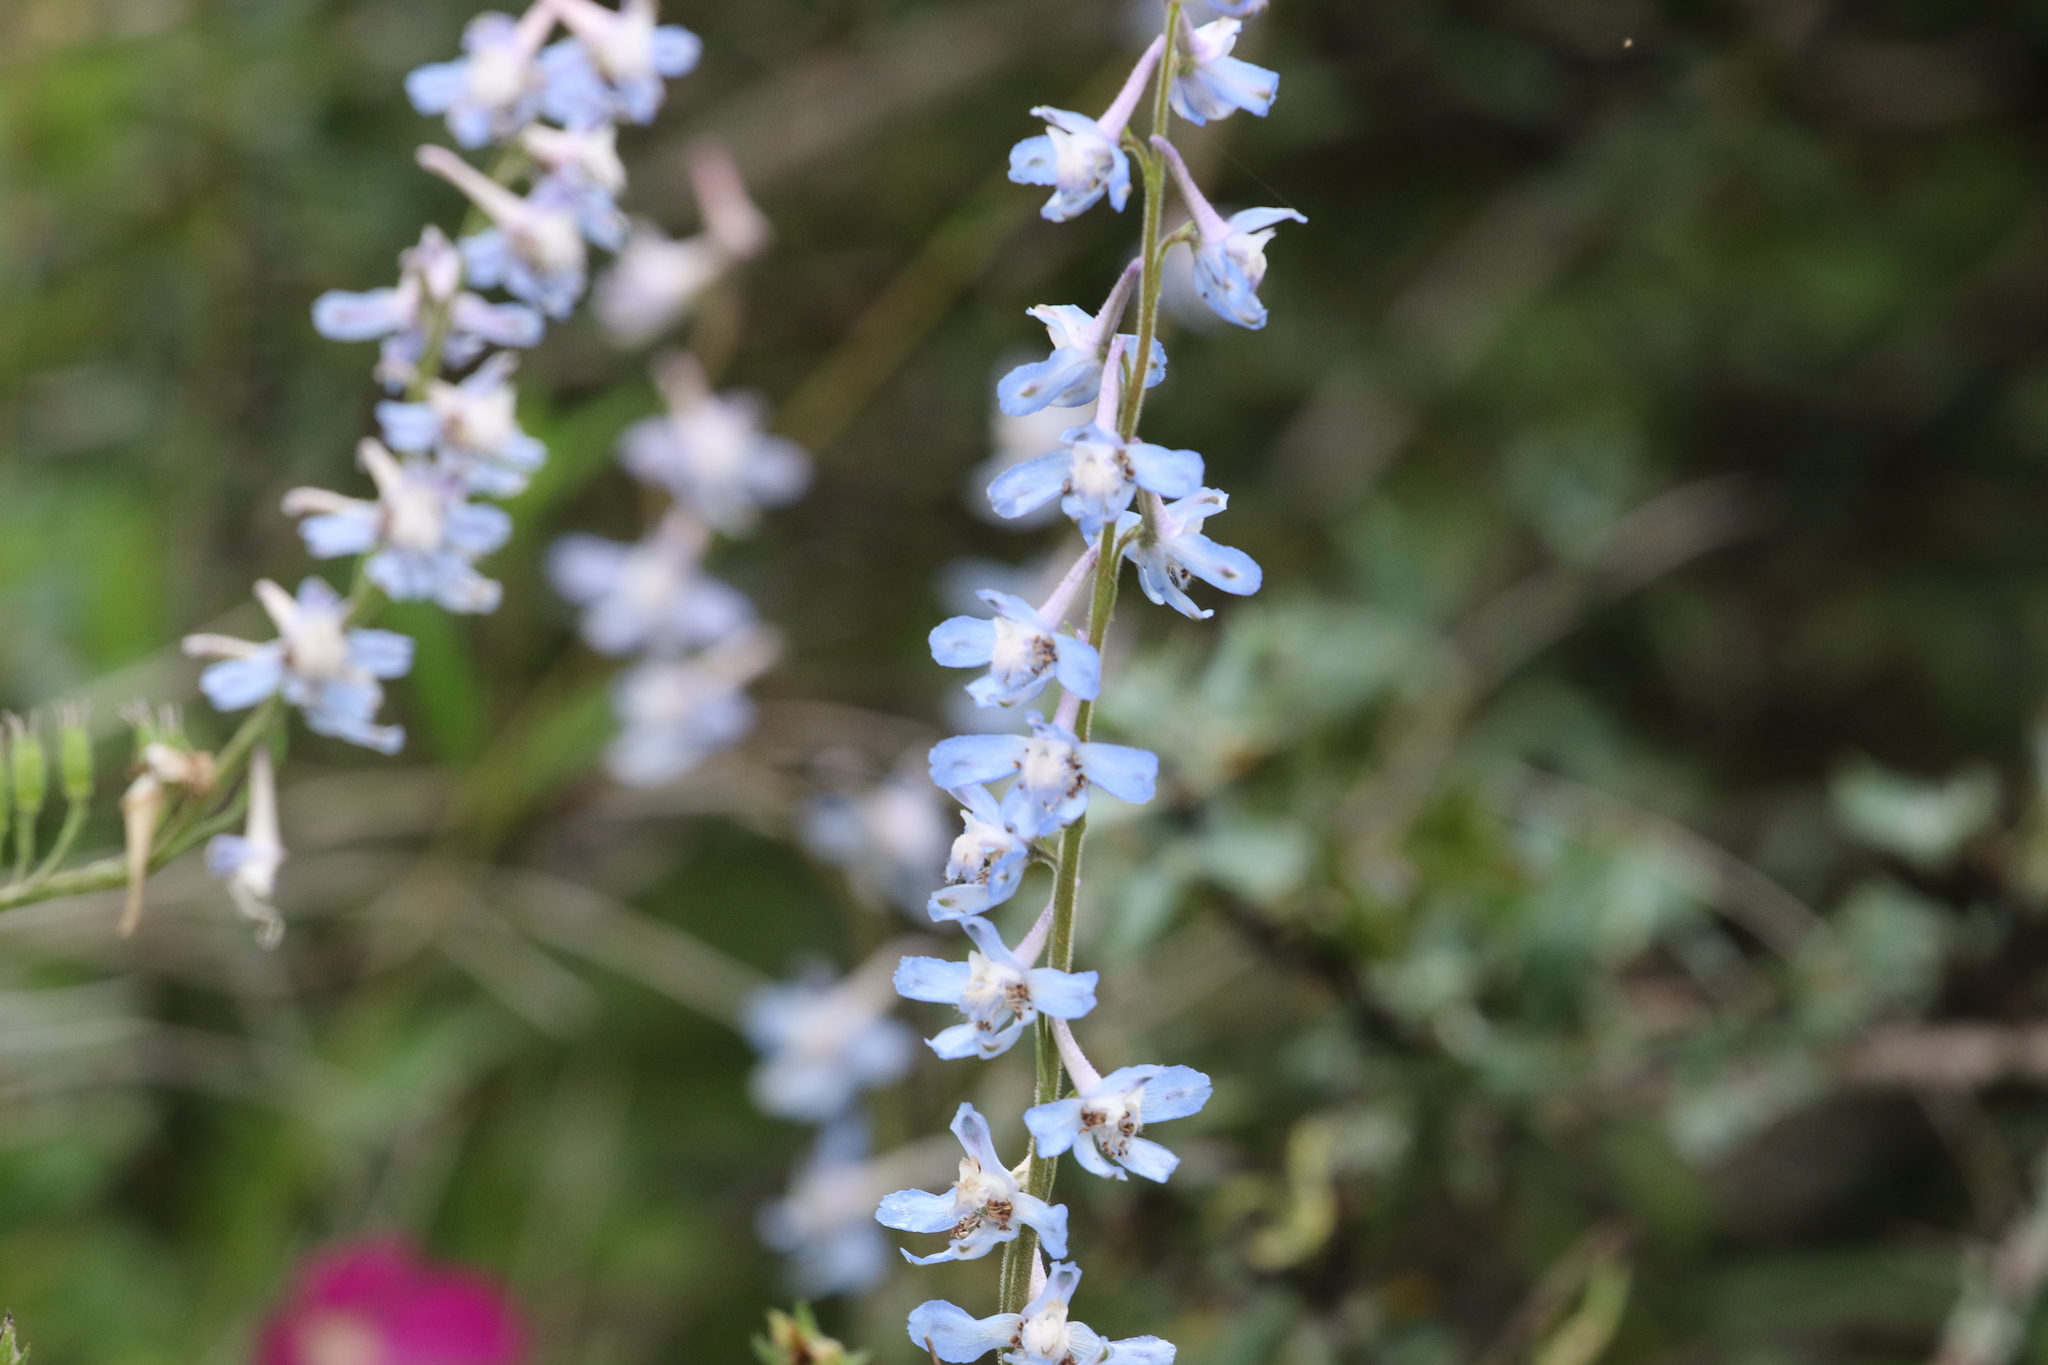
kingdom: Plantae
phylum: Tracheophyta
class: Magnoliopsida
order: Ranunculales
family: Ranunculaceae
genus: Delphinium
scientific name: Delphinium carolinianum
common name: Carolina larkspur
